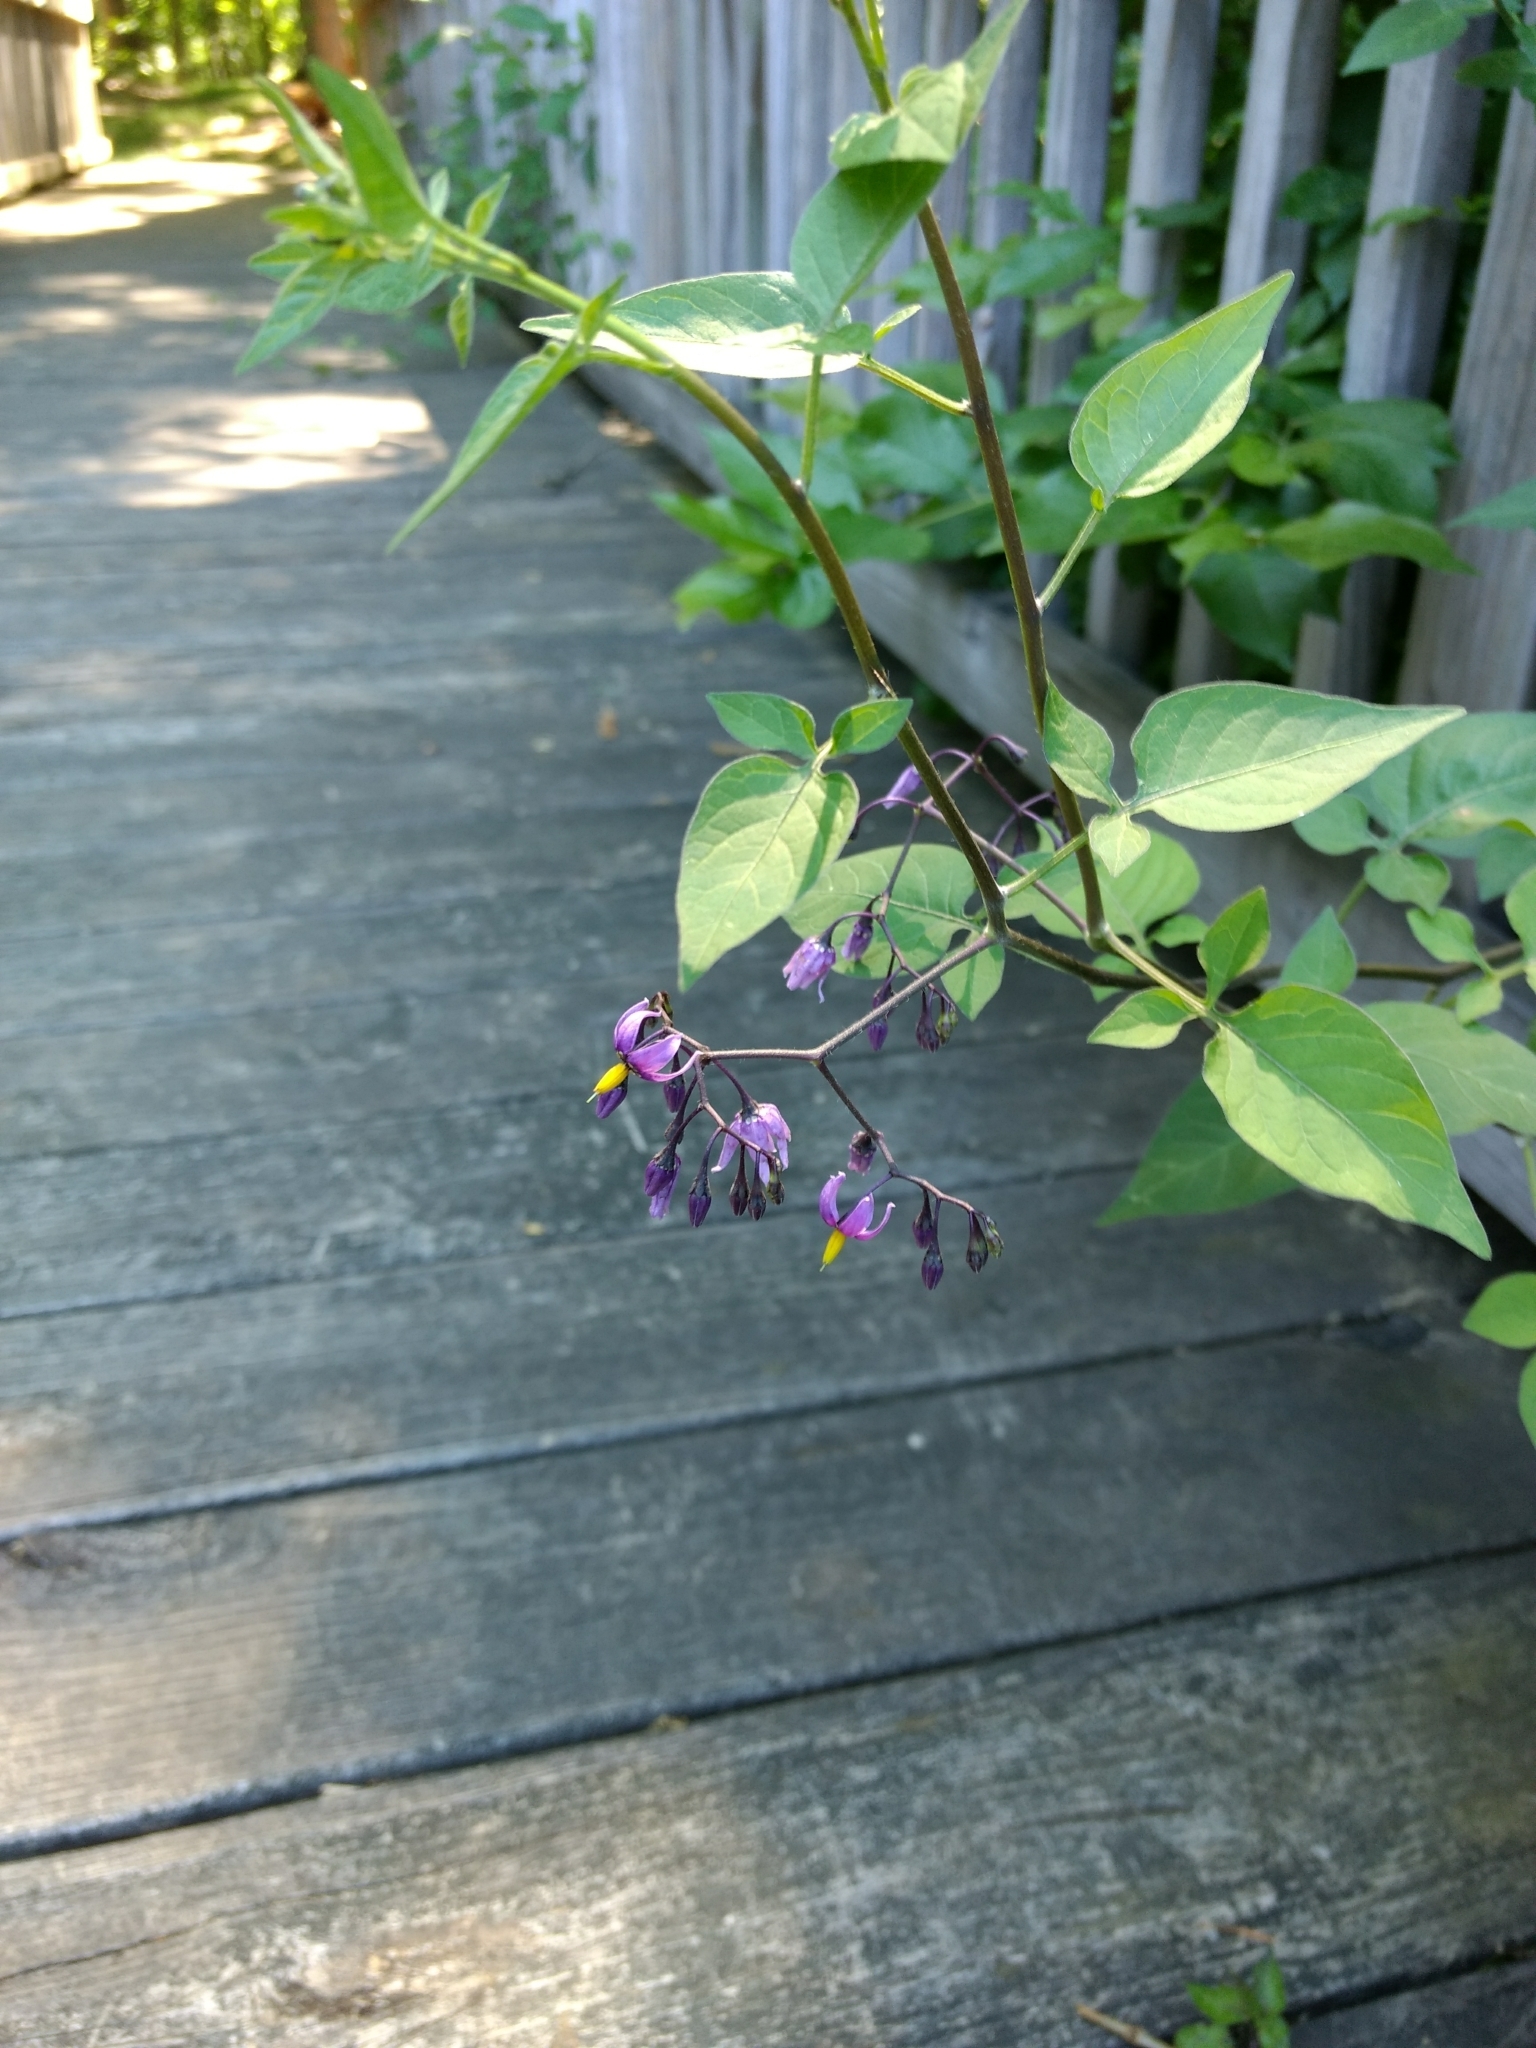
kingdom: Plantae
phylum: Tracheophyta
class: Magnoliopsida
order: Solanales
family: Solanaceae
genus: Solanum
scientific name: Solanum dulcamara
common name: Climbing nightshade
